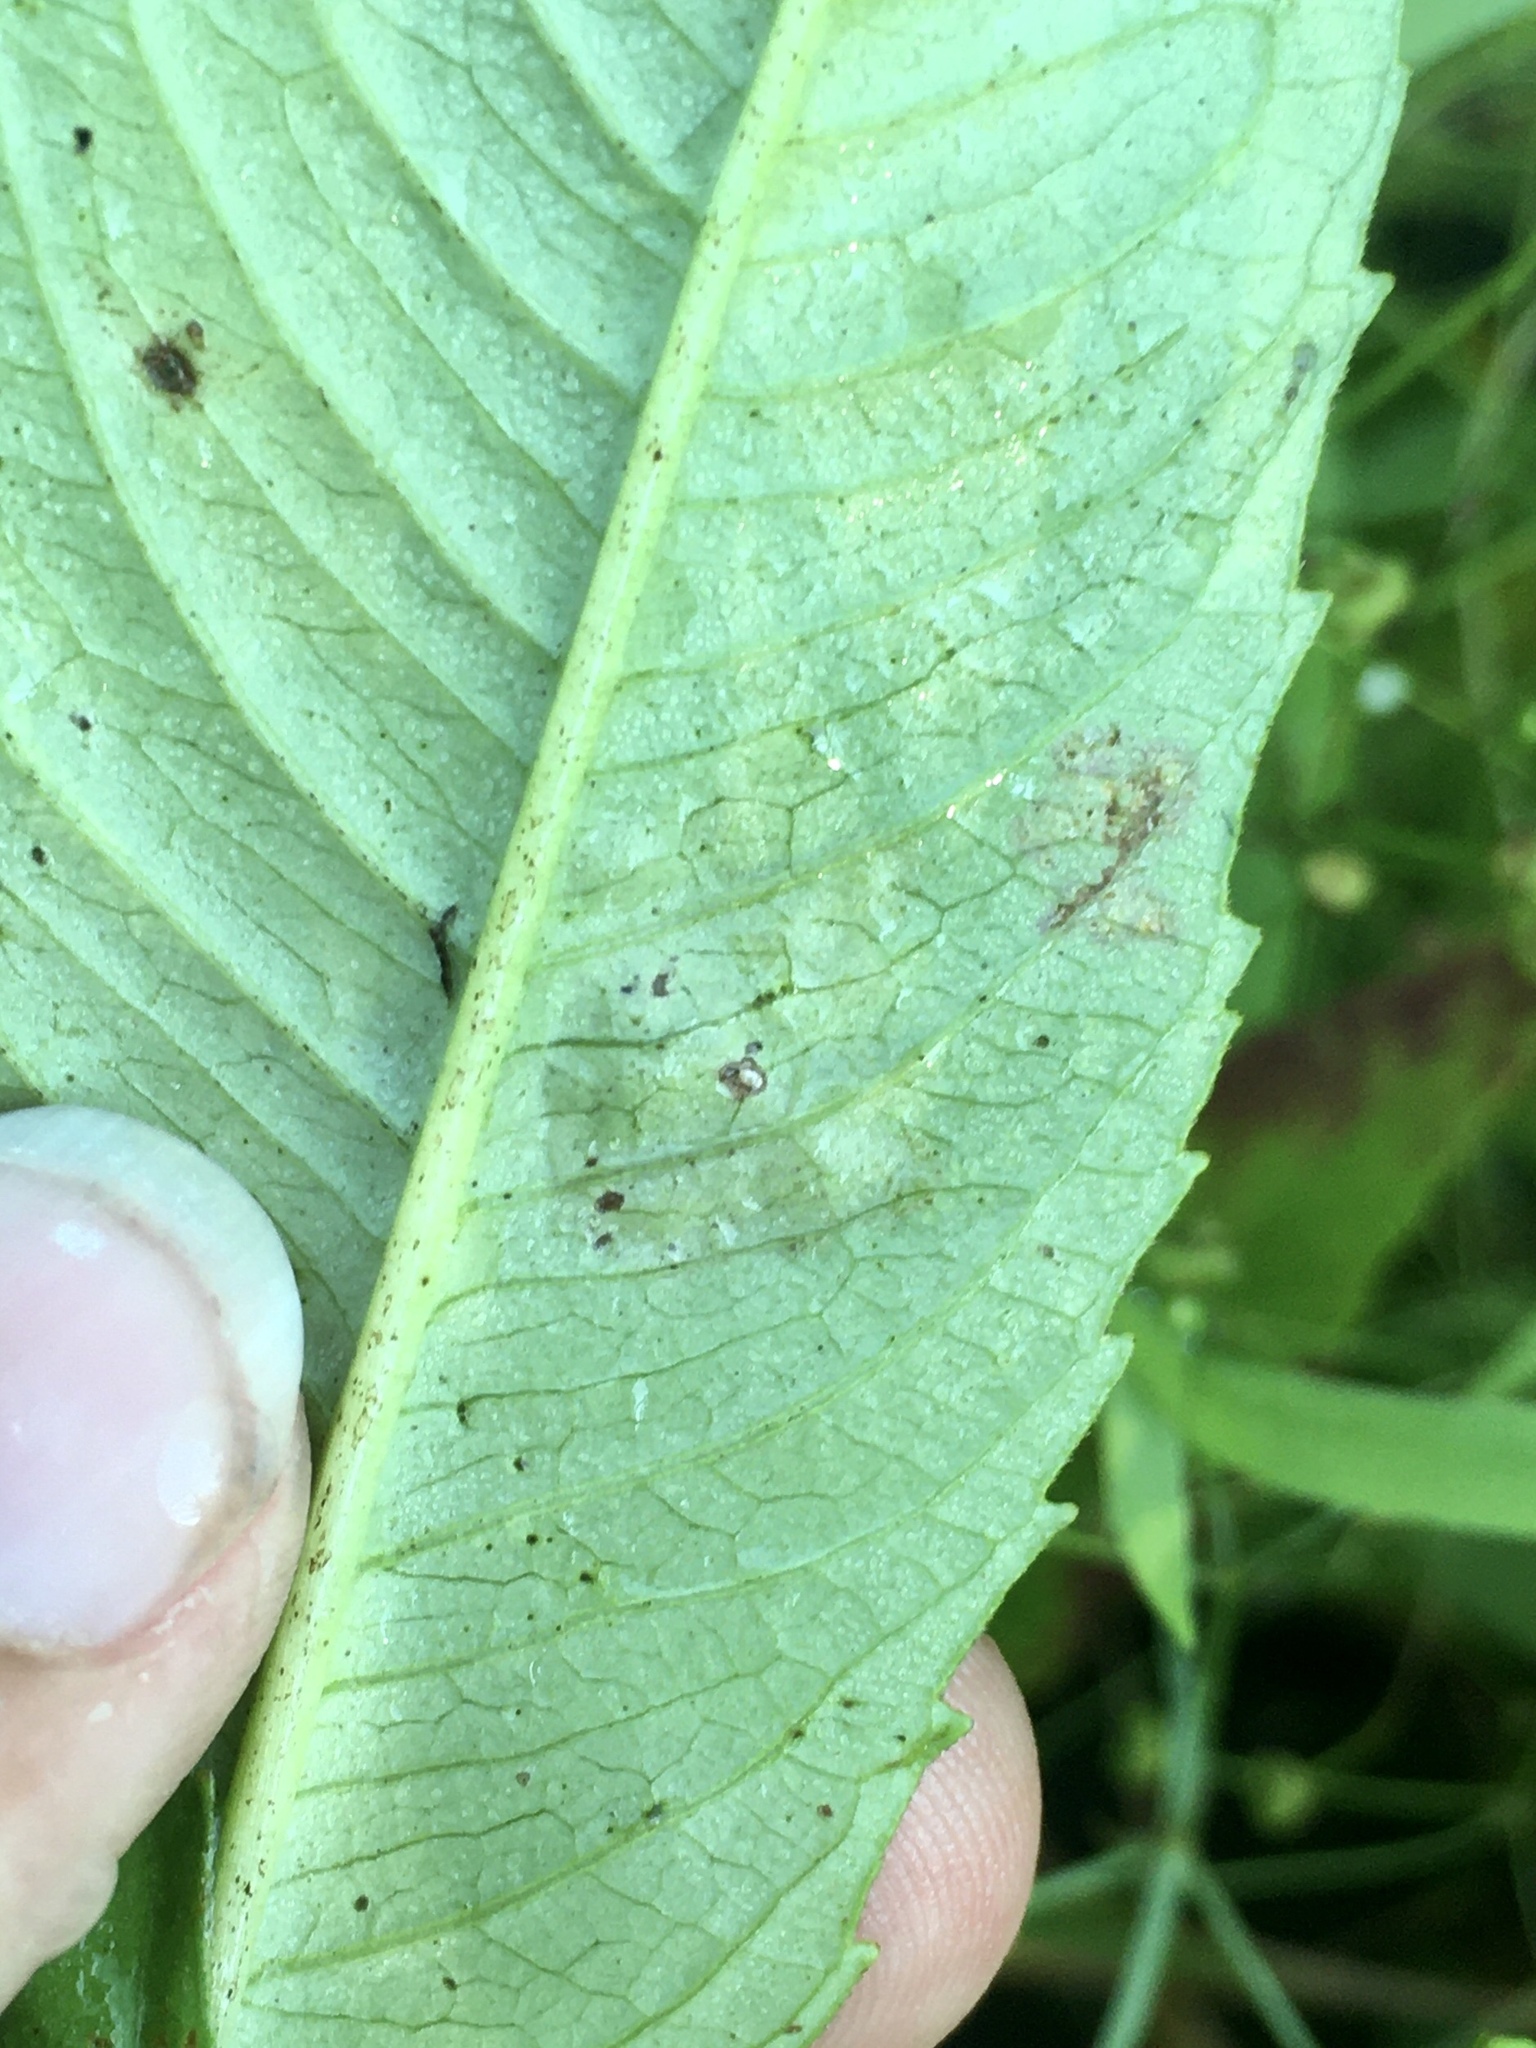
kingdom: Animalia
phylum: Arthropoda
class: Insecta
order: Diptera
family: Agromyzidae
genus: Calycomyza
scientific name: Calycomyza platyptera
